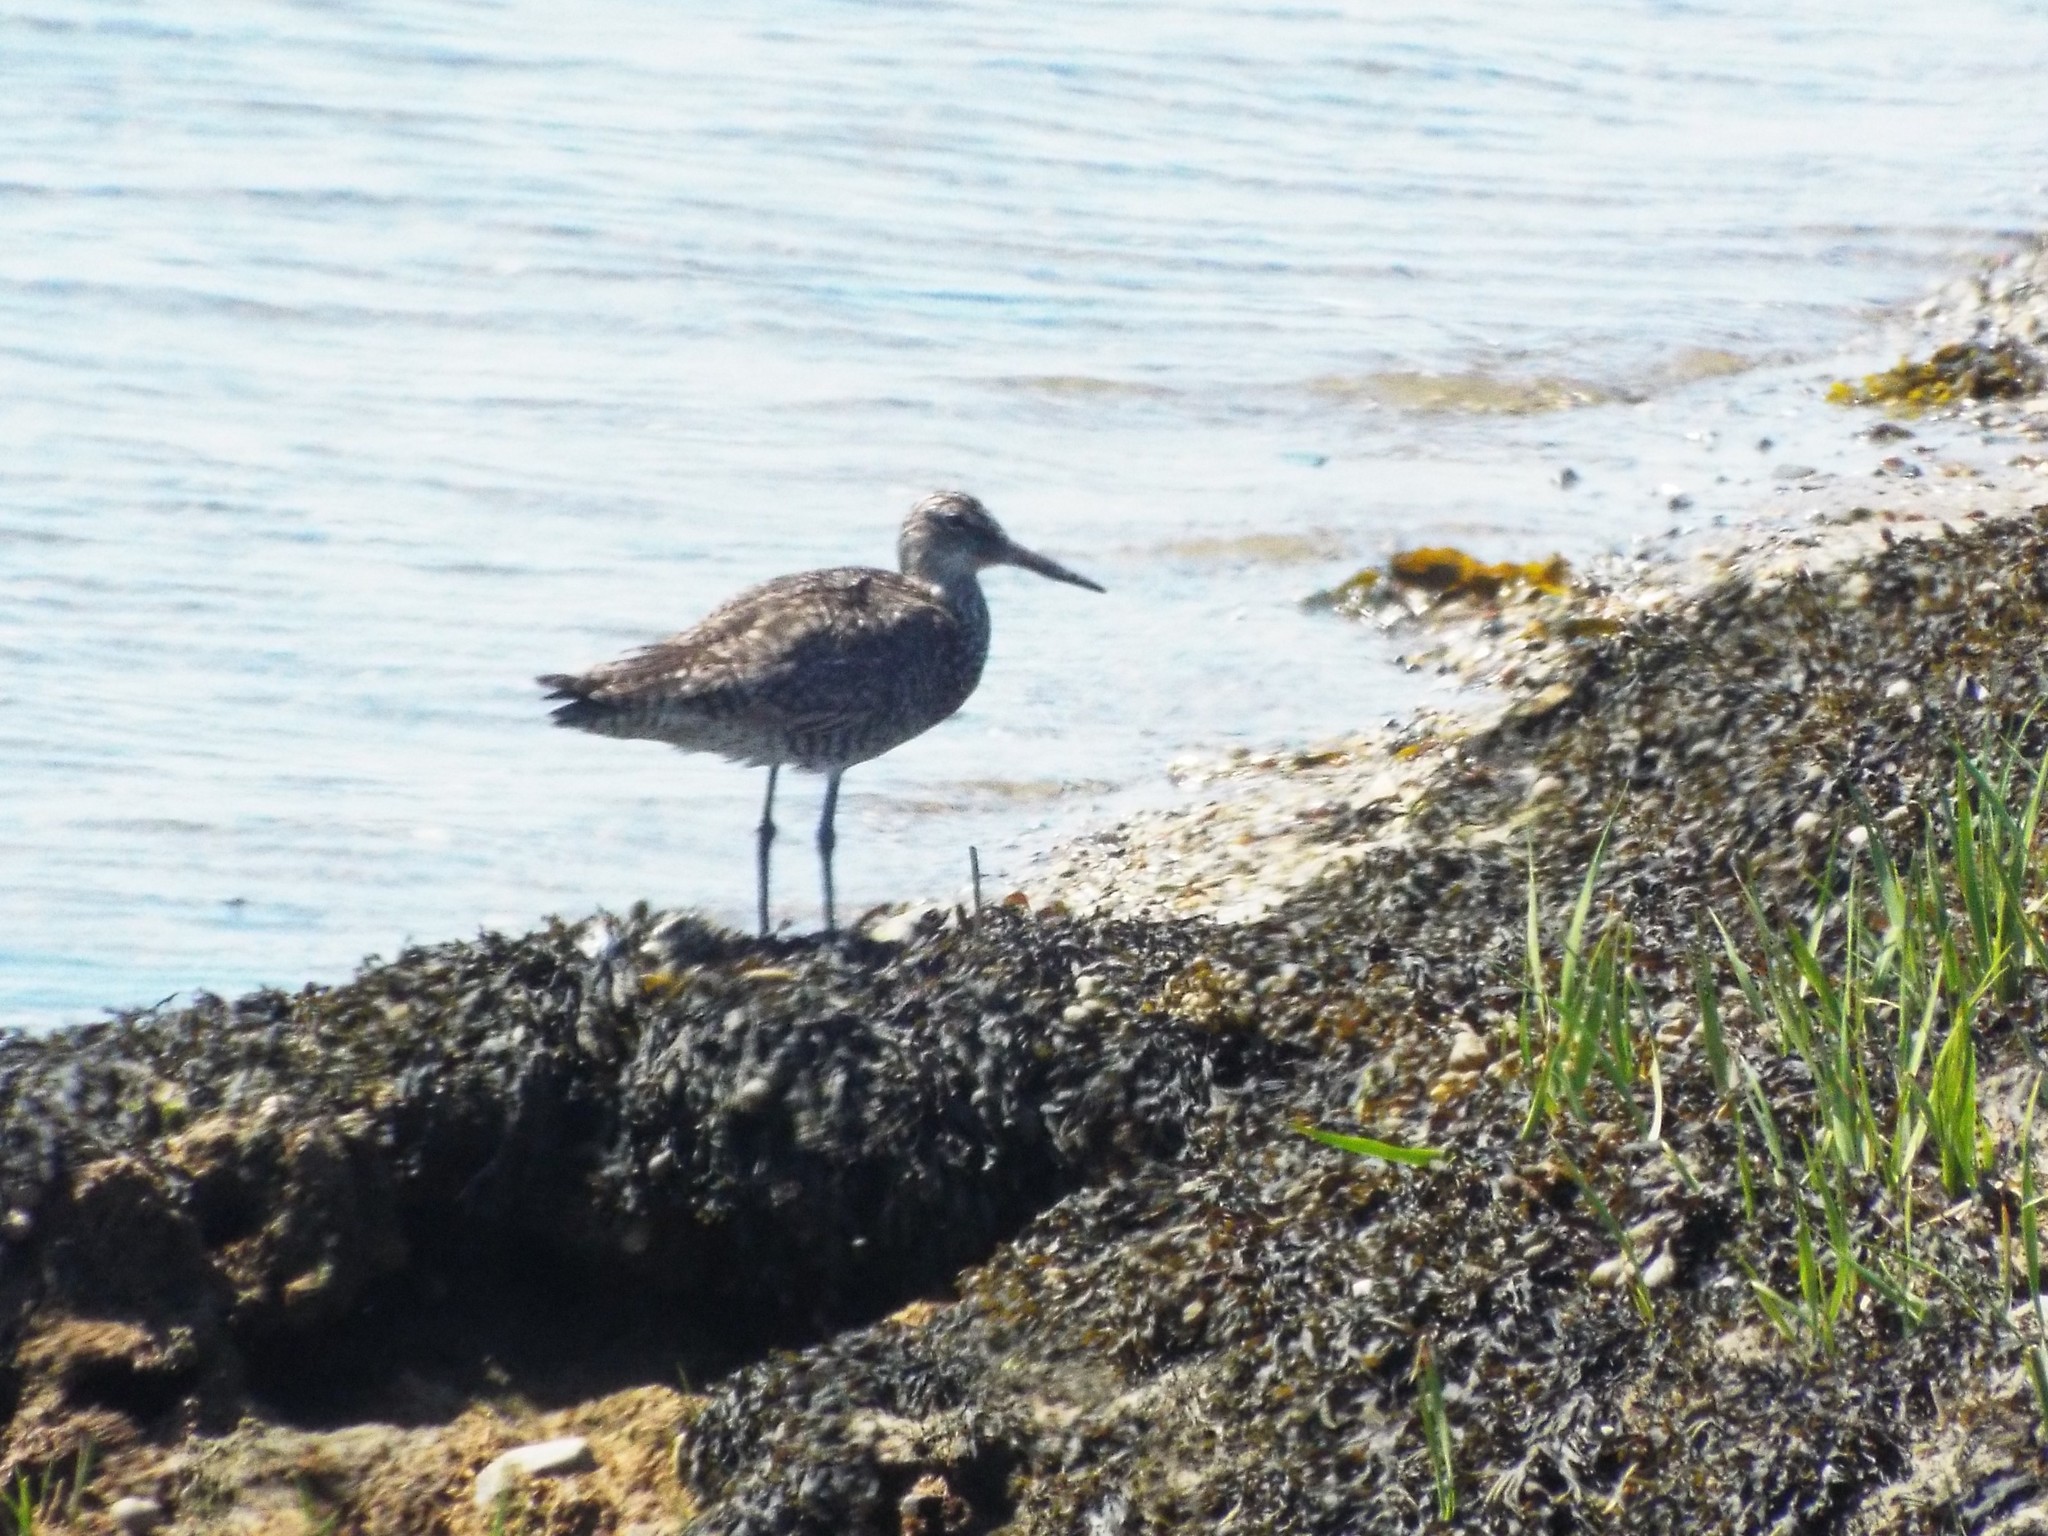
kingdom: Animalia
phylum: Chordata
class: Aves
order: Charadriiformes
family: Scolopacidae
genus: Tringa
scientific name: Tringa semipalmata
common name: Willet
